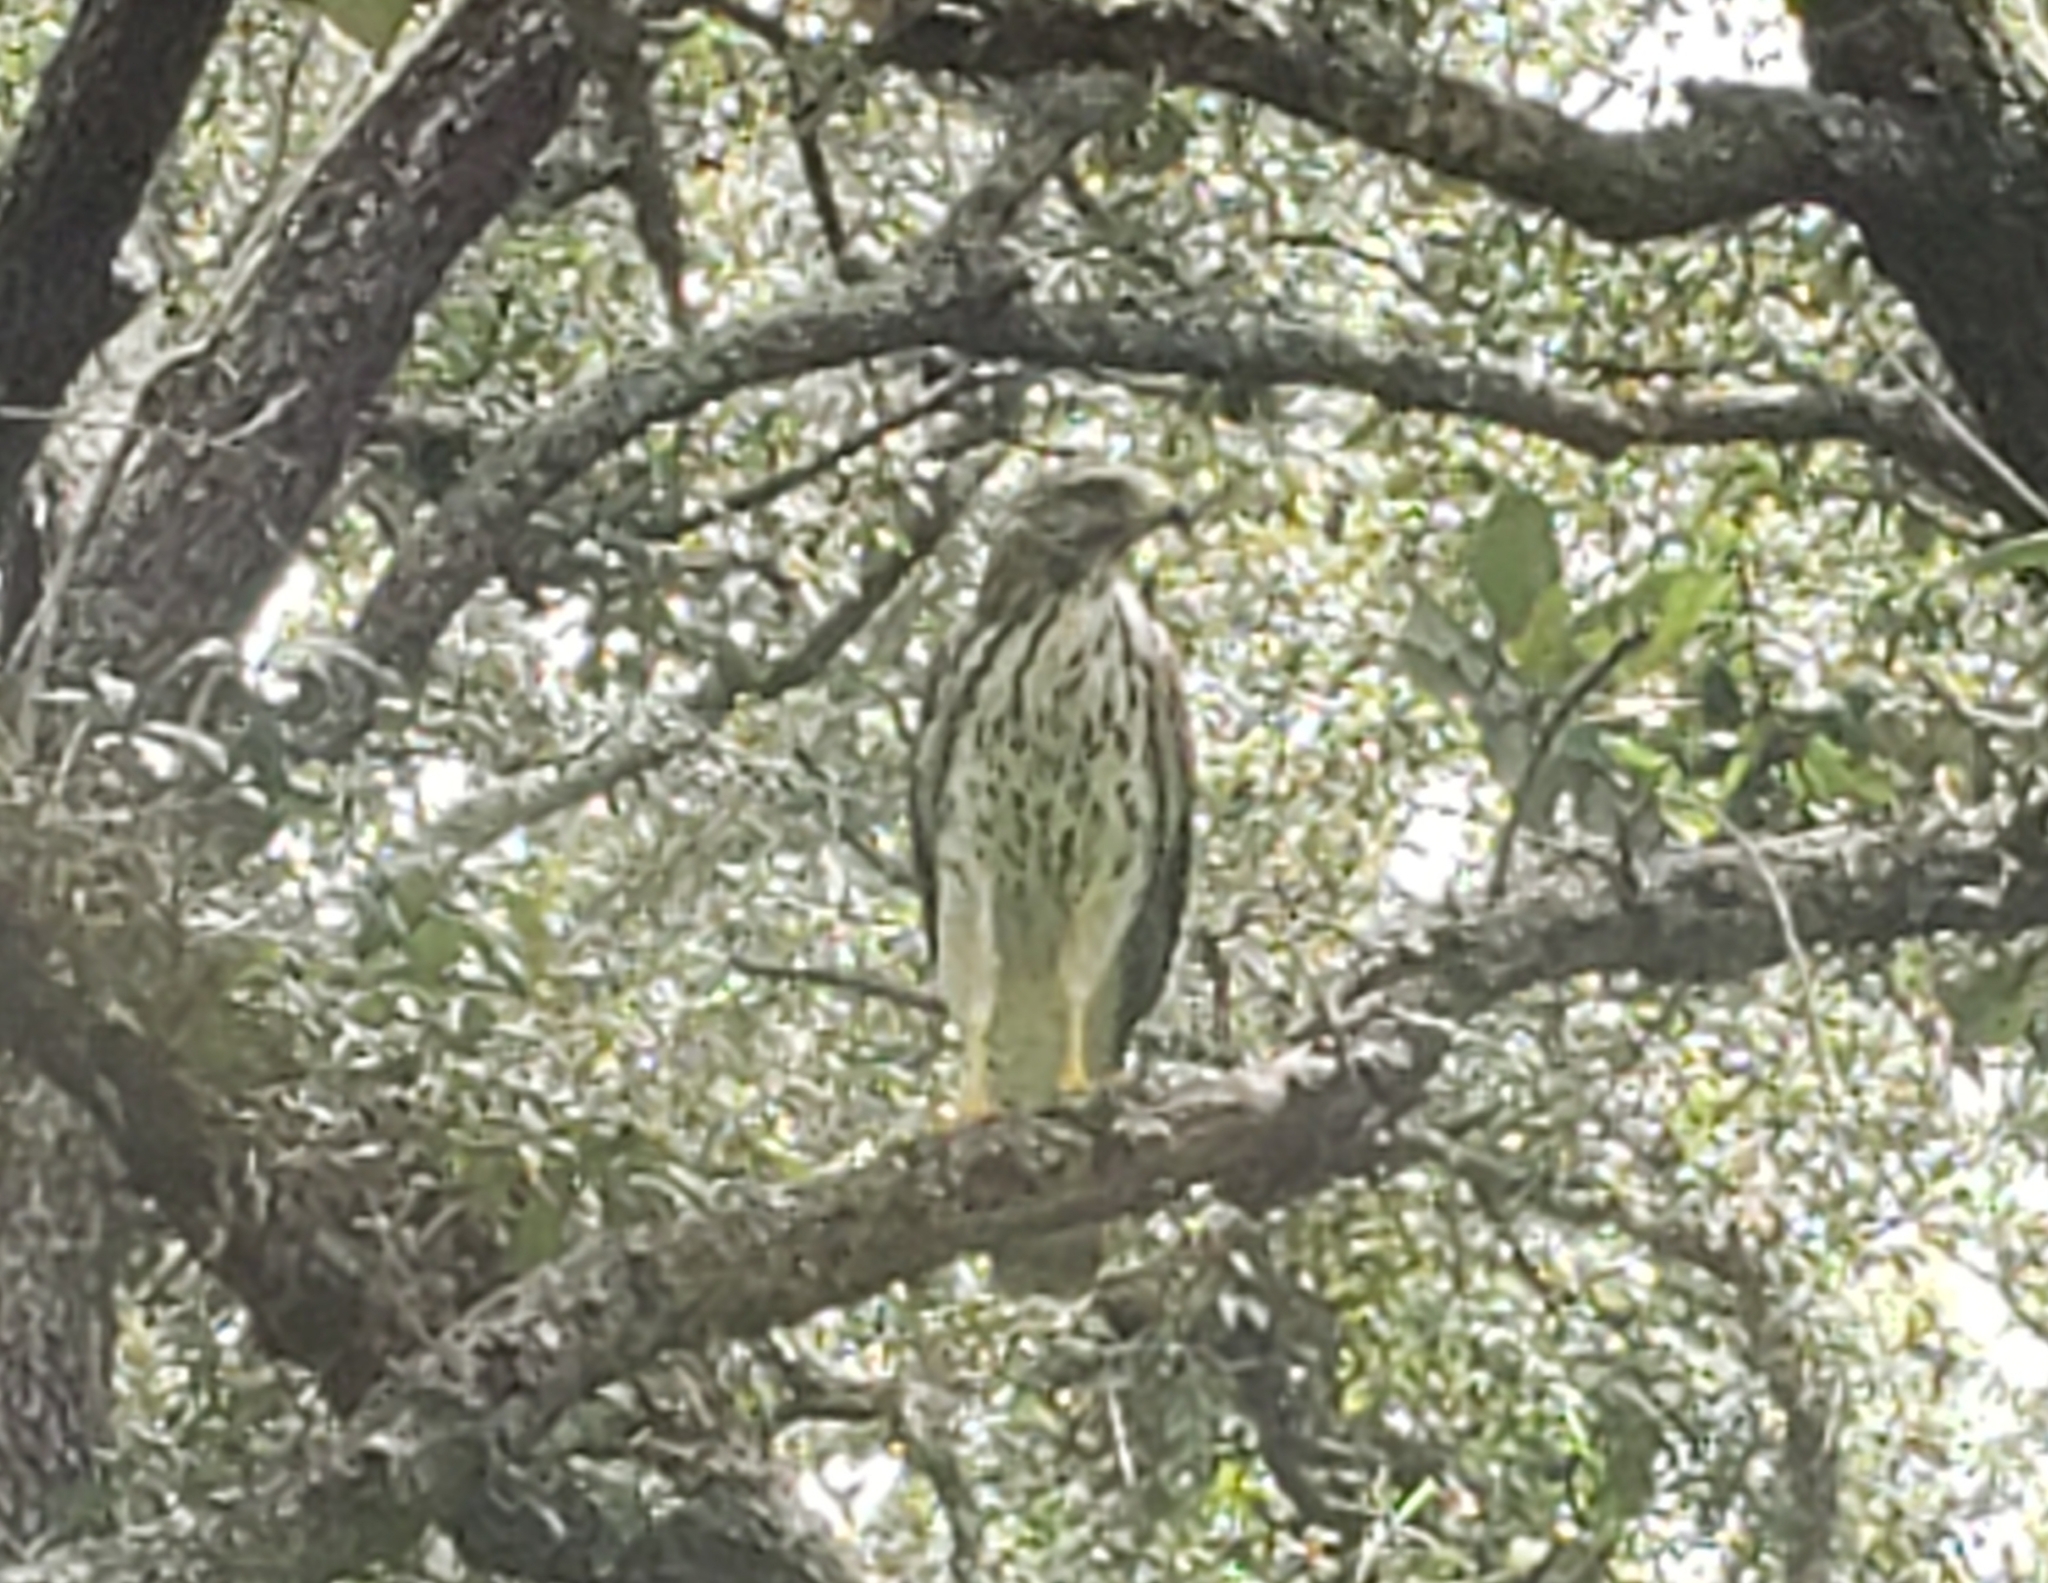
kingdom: Animalia
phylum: Chordata
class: Aves
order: Accipitriformes
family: Accipitridae
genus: Buteo
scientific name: Buteo lineatus
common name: Red-shouldered hawk
